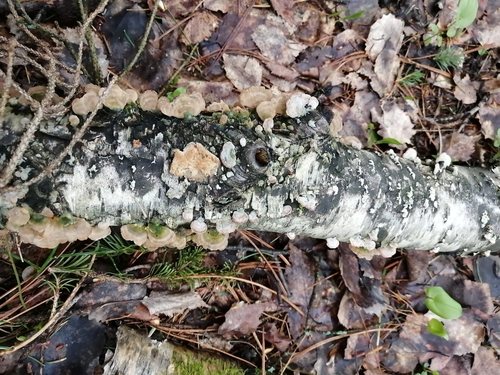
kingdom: Fungi
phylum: Basidiomycota
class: Agaricomycetes
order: Hymenochaetales
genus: Trichaptum
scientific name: Trichaptum biforme
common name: Violet-toothed polypore
